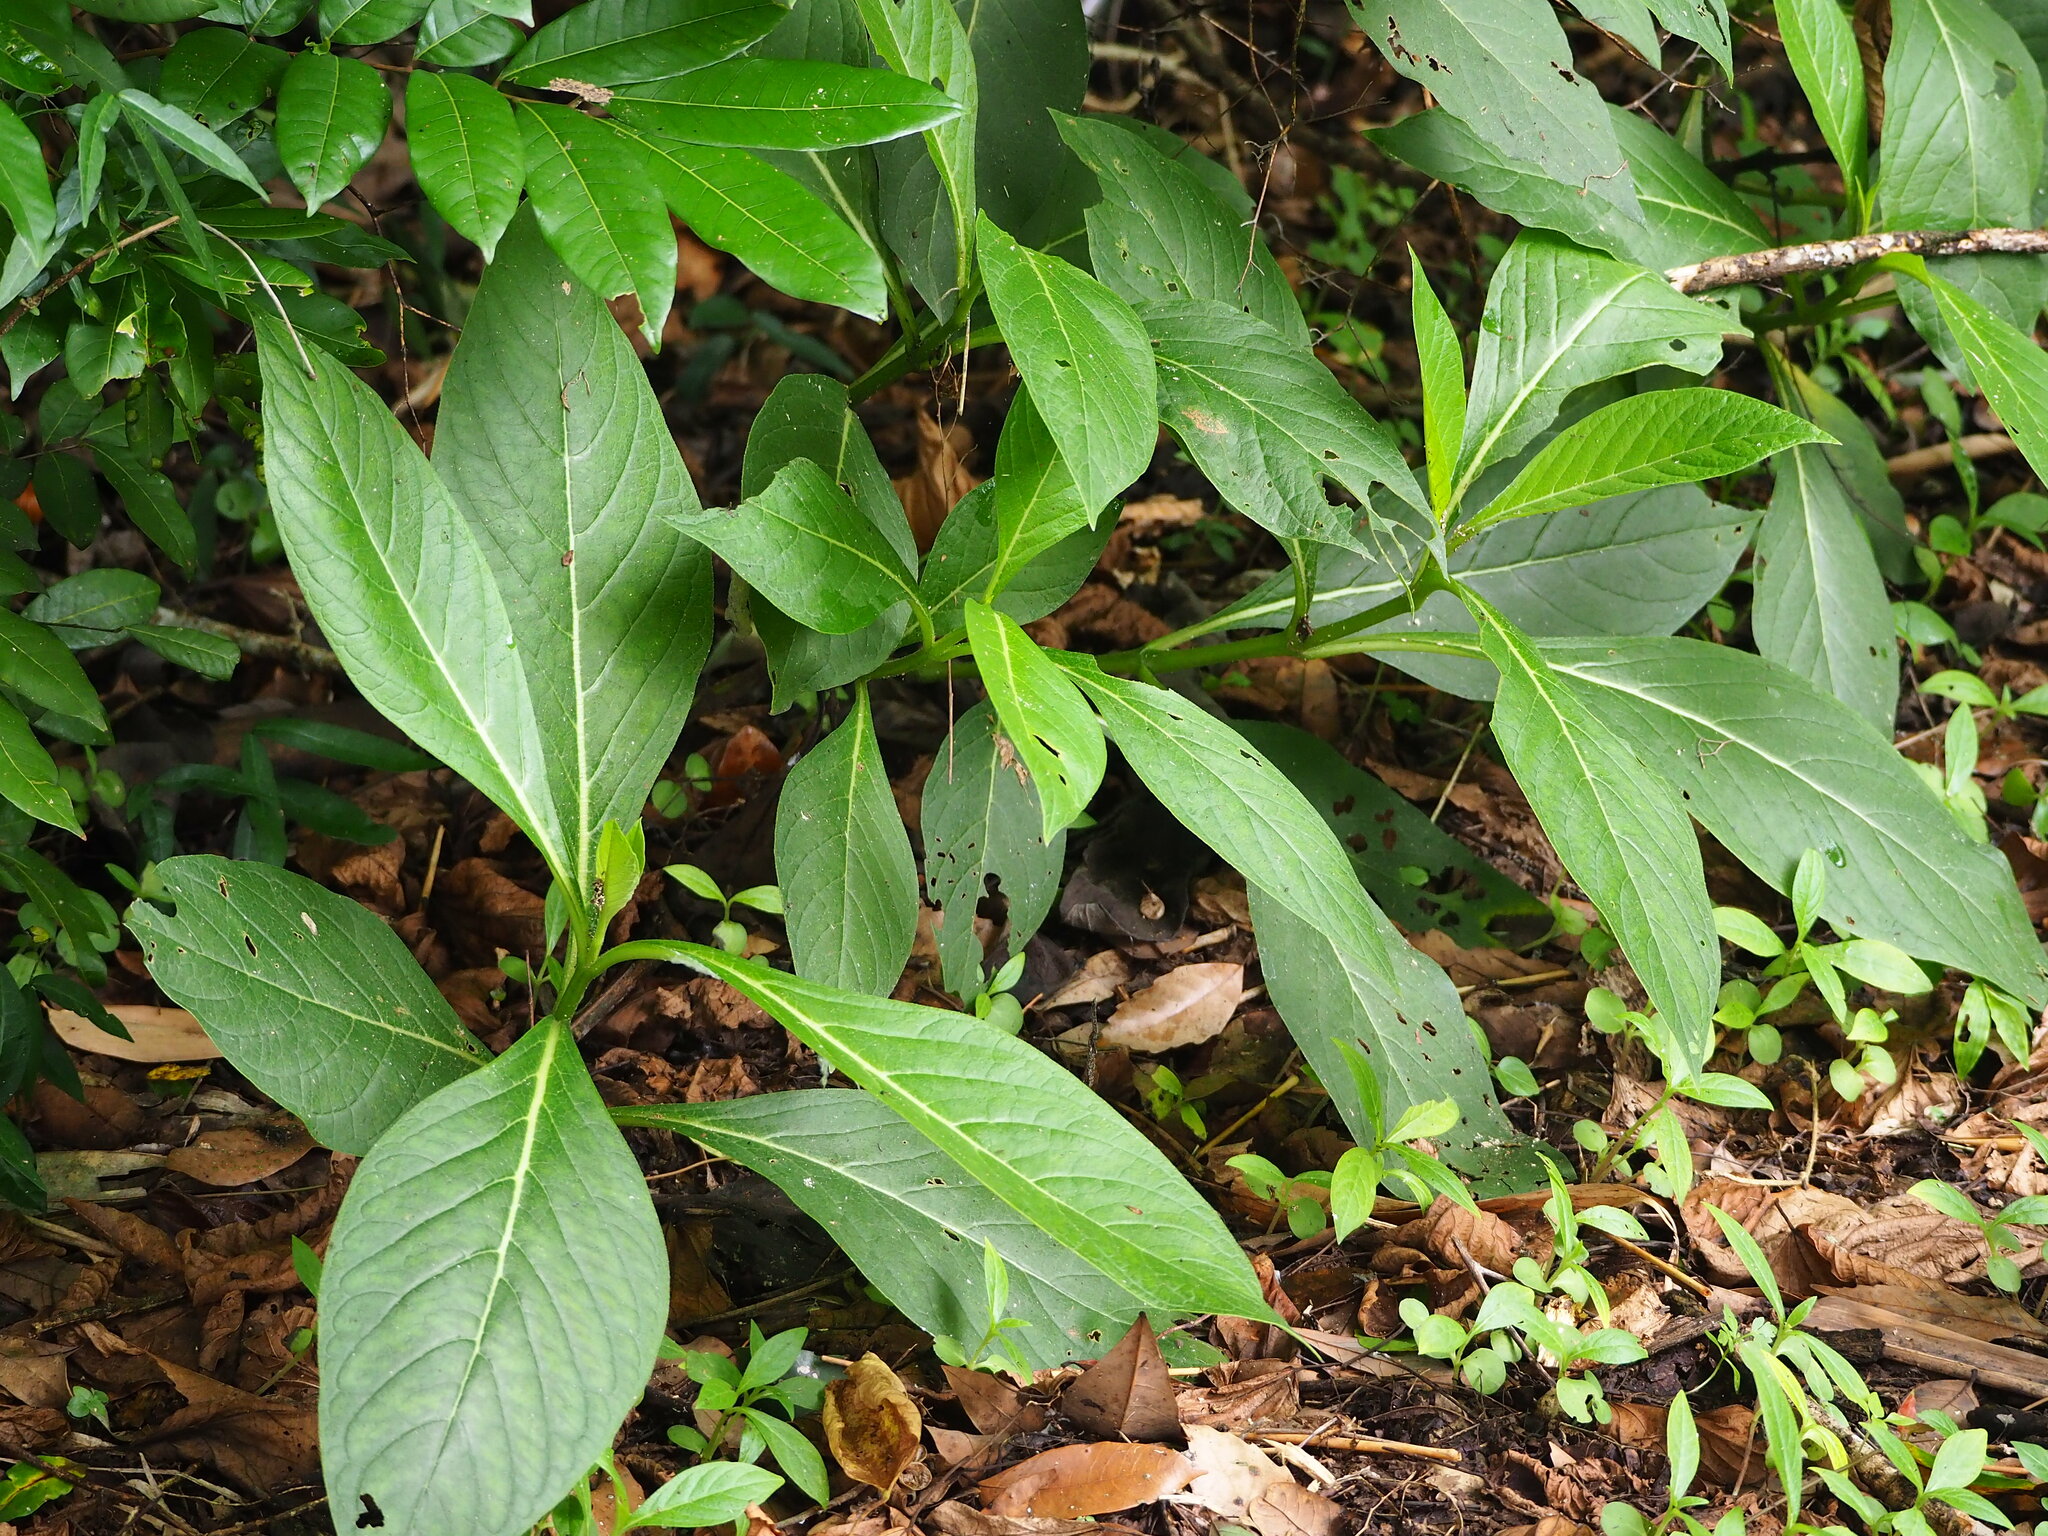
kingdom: Plantae
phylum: Tracheophyta
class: Magnoliopsida
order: Boraginales
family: Boraginaceae
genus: Trichodesma
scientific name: Trichodesma calycosum
